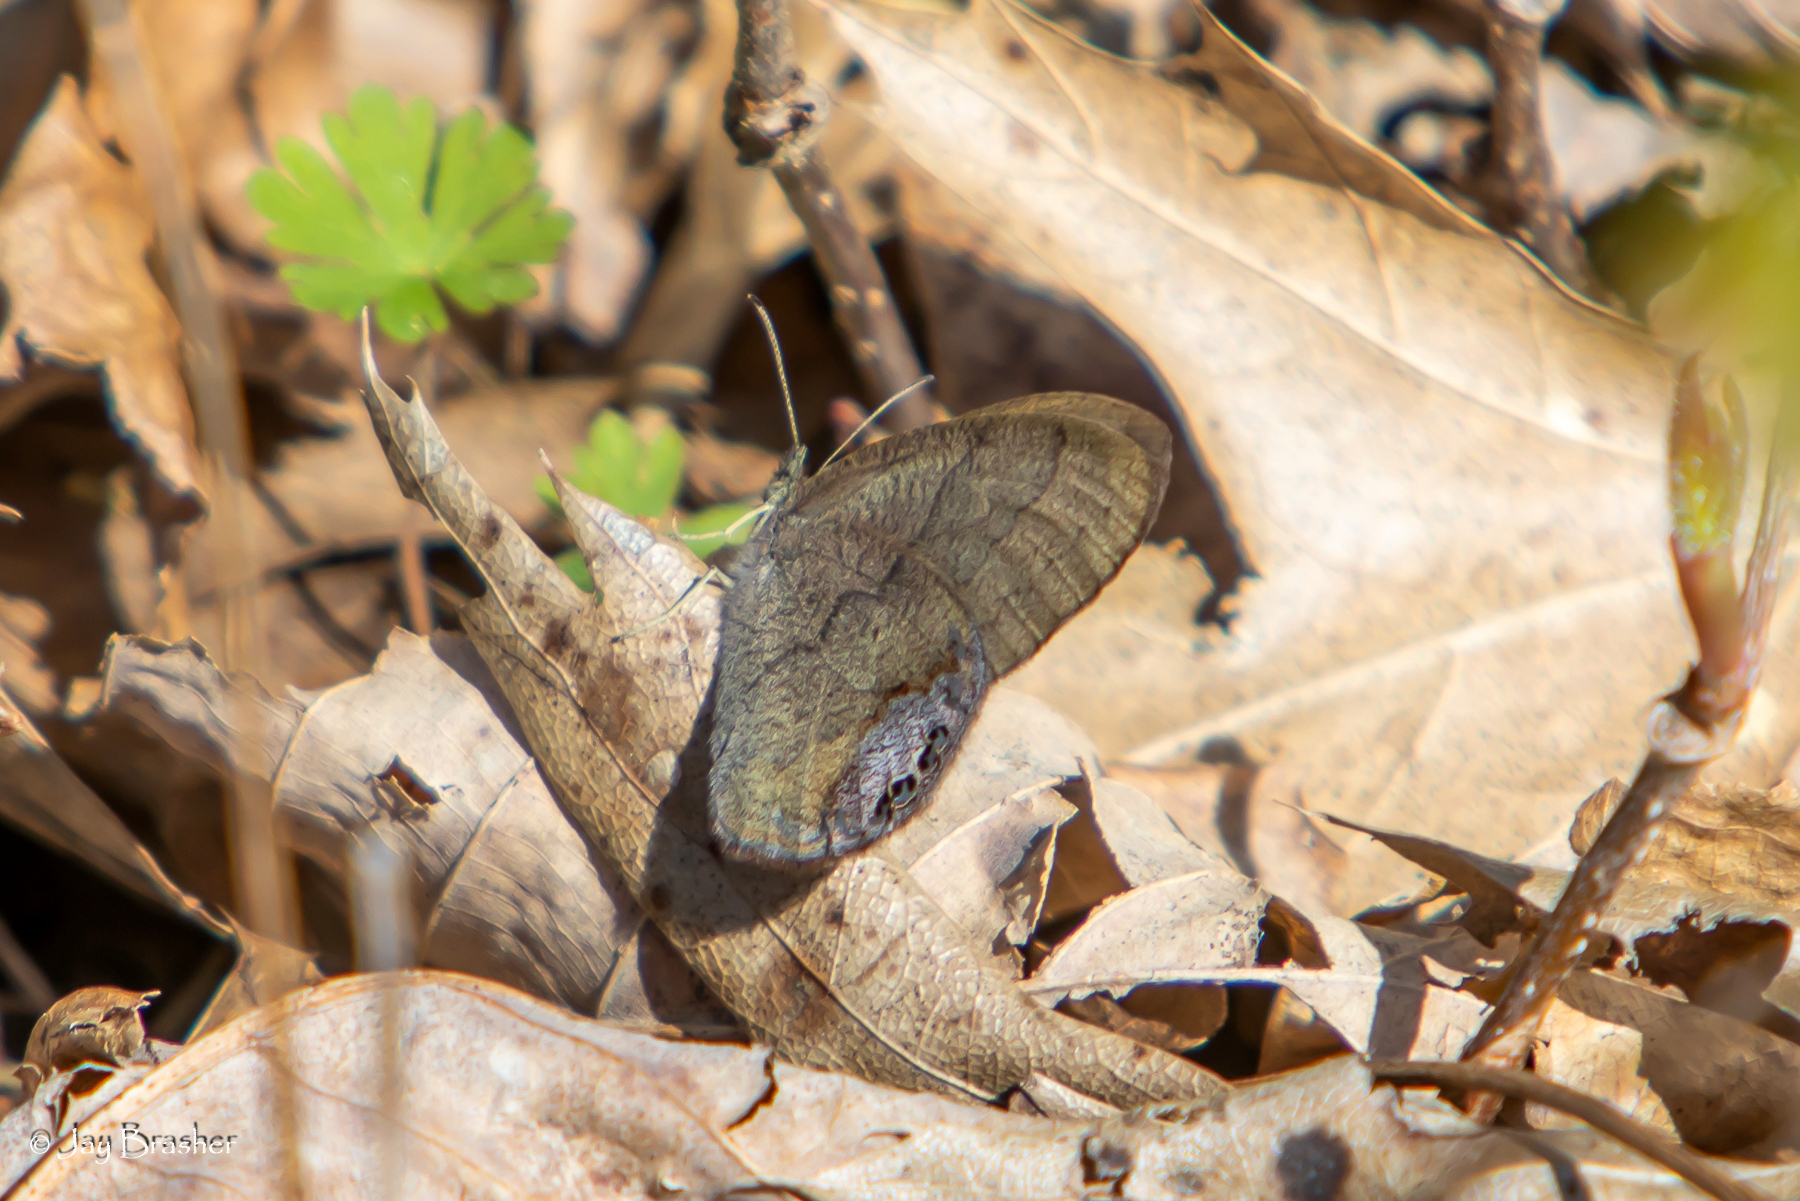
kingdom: Animalia
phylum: Arthropoda
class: Insecta
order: Lepidoptera
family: Nymphalidae
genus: Euptychia
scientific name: Euptychia cornelius
